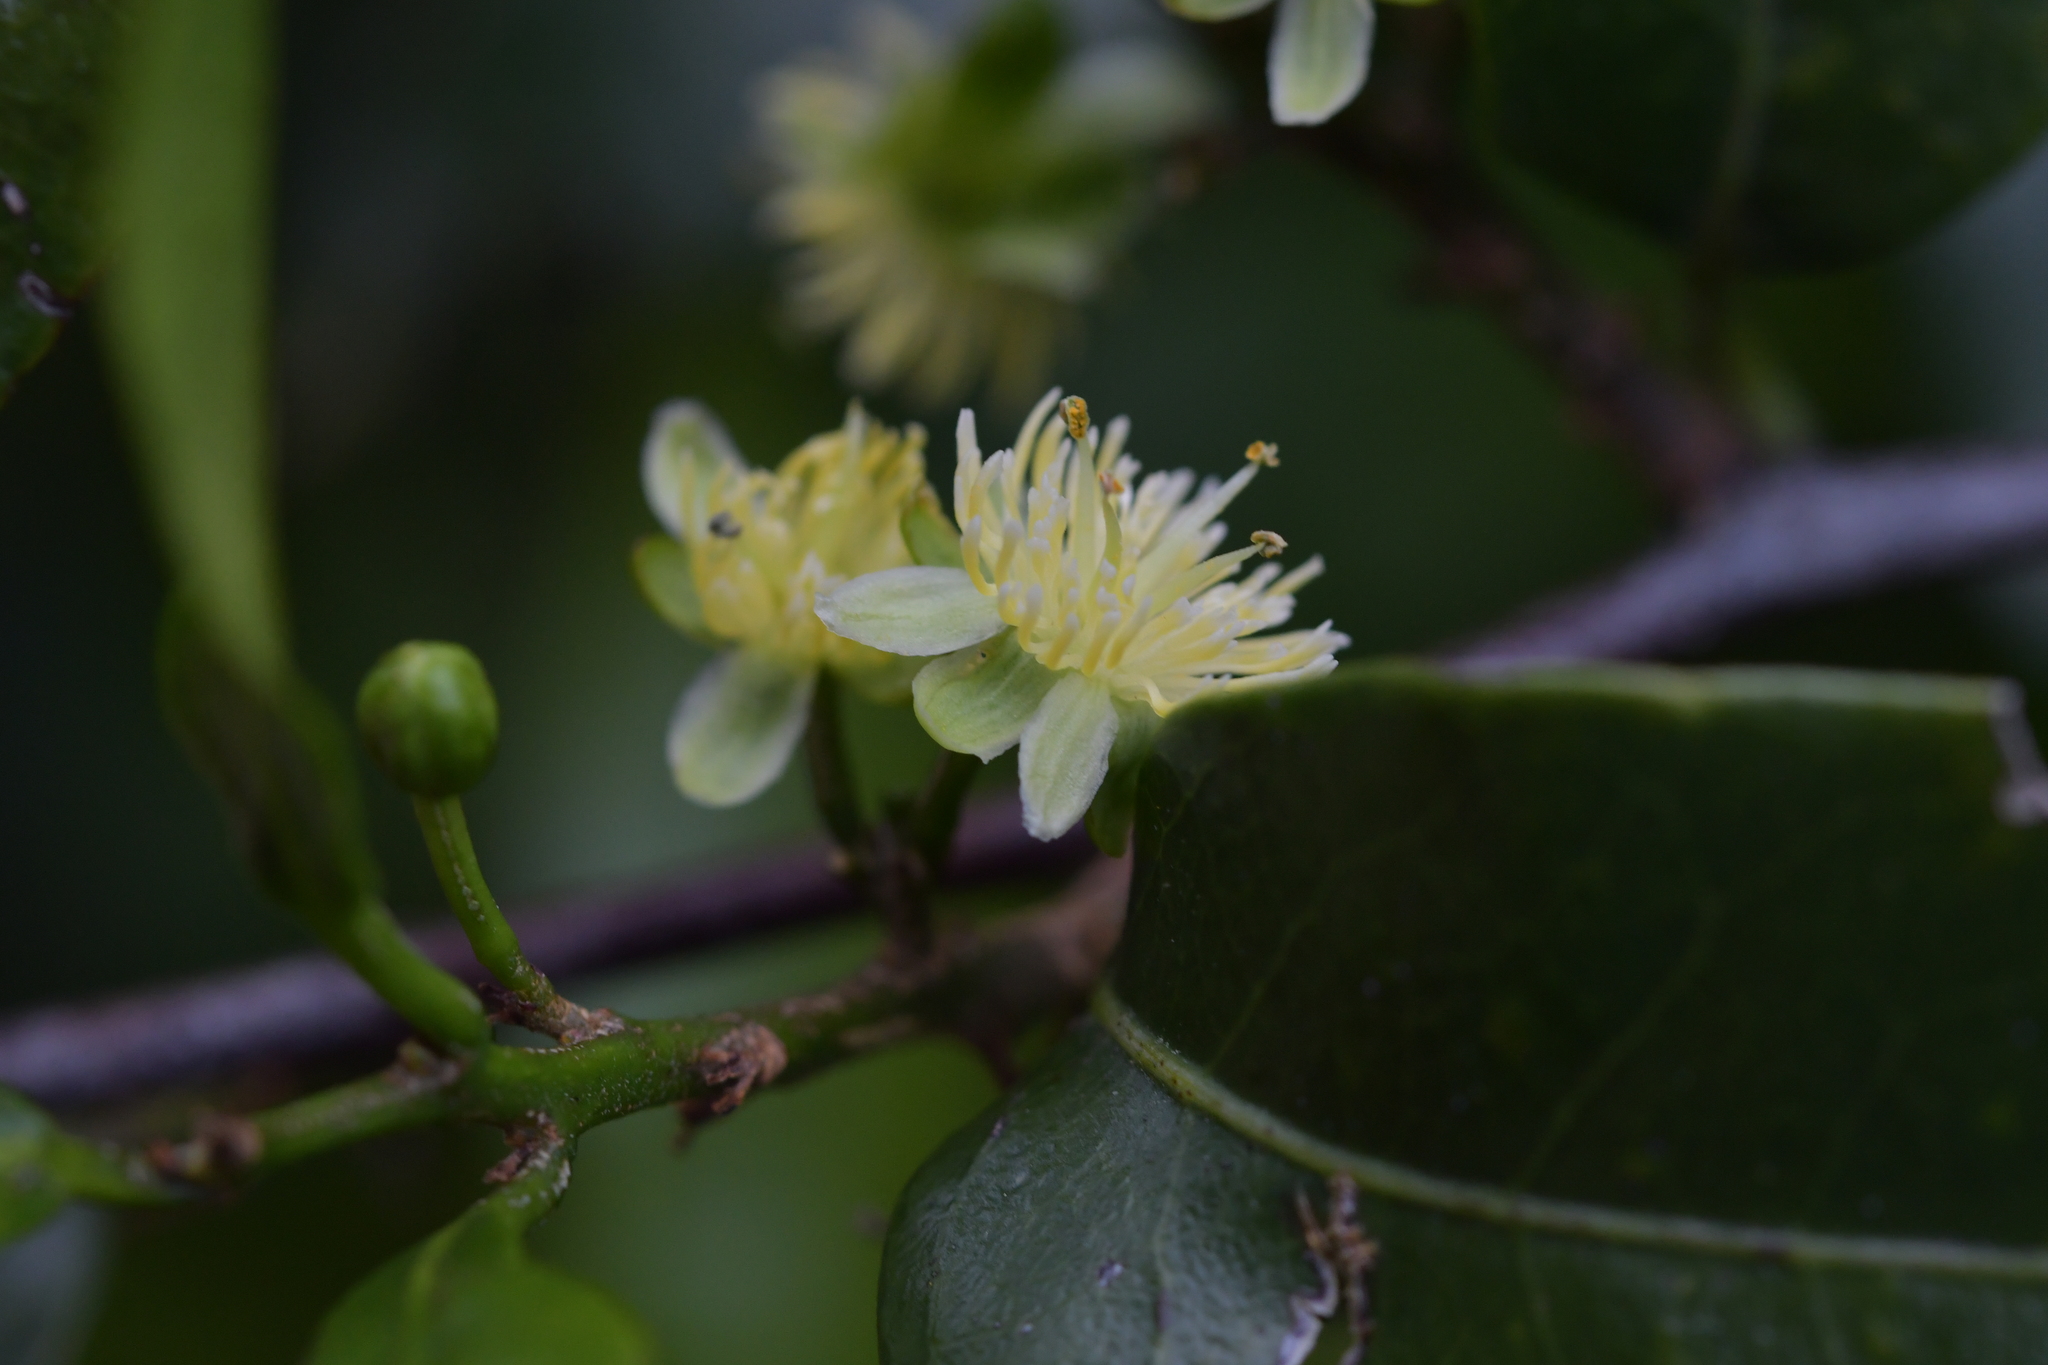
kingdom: Plantae
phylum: Tracheophyta
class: Magnoliopsida
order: Malpighiales
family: Passifloraceae
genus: Passiflora
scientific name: Passiflora tetrandra
